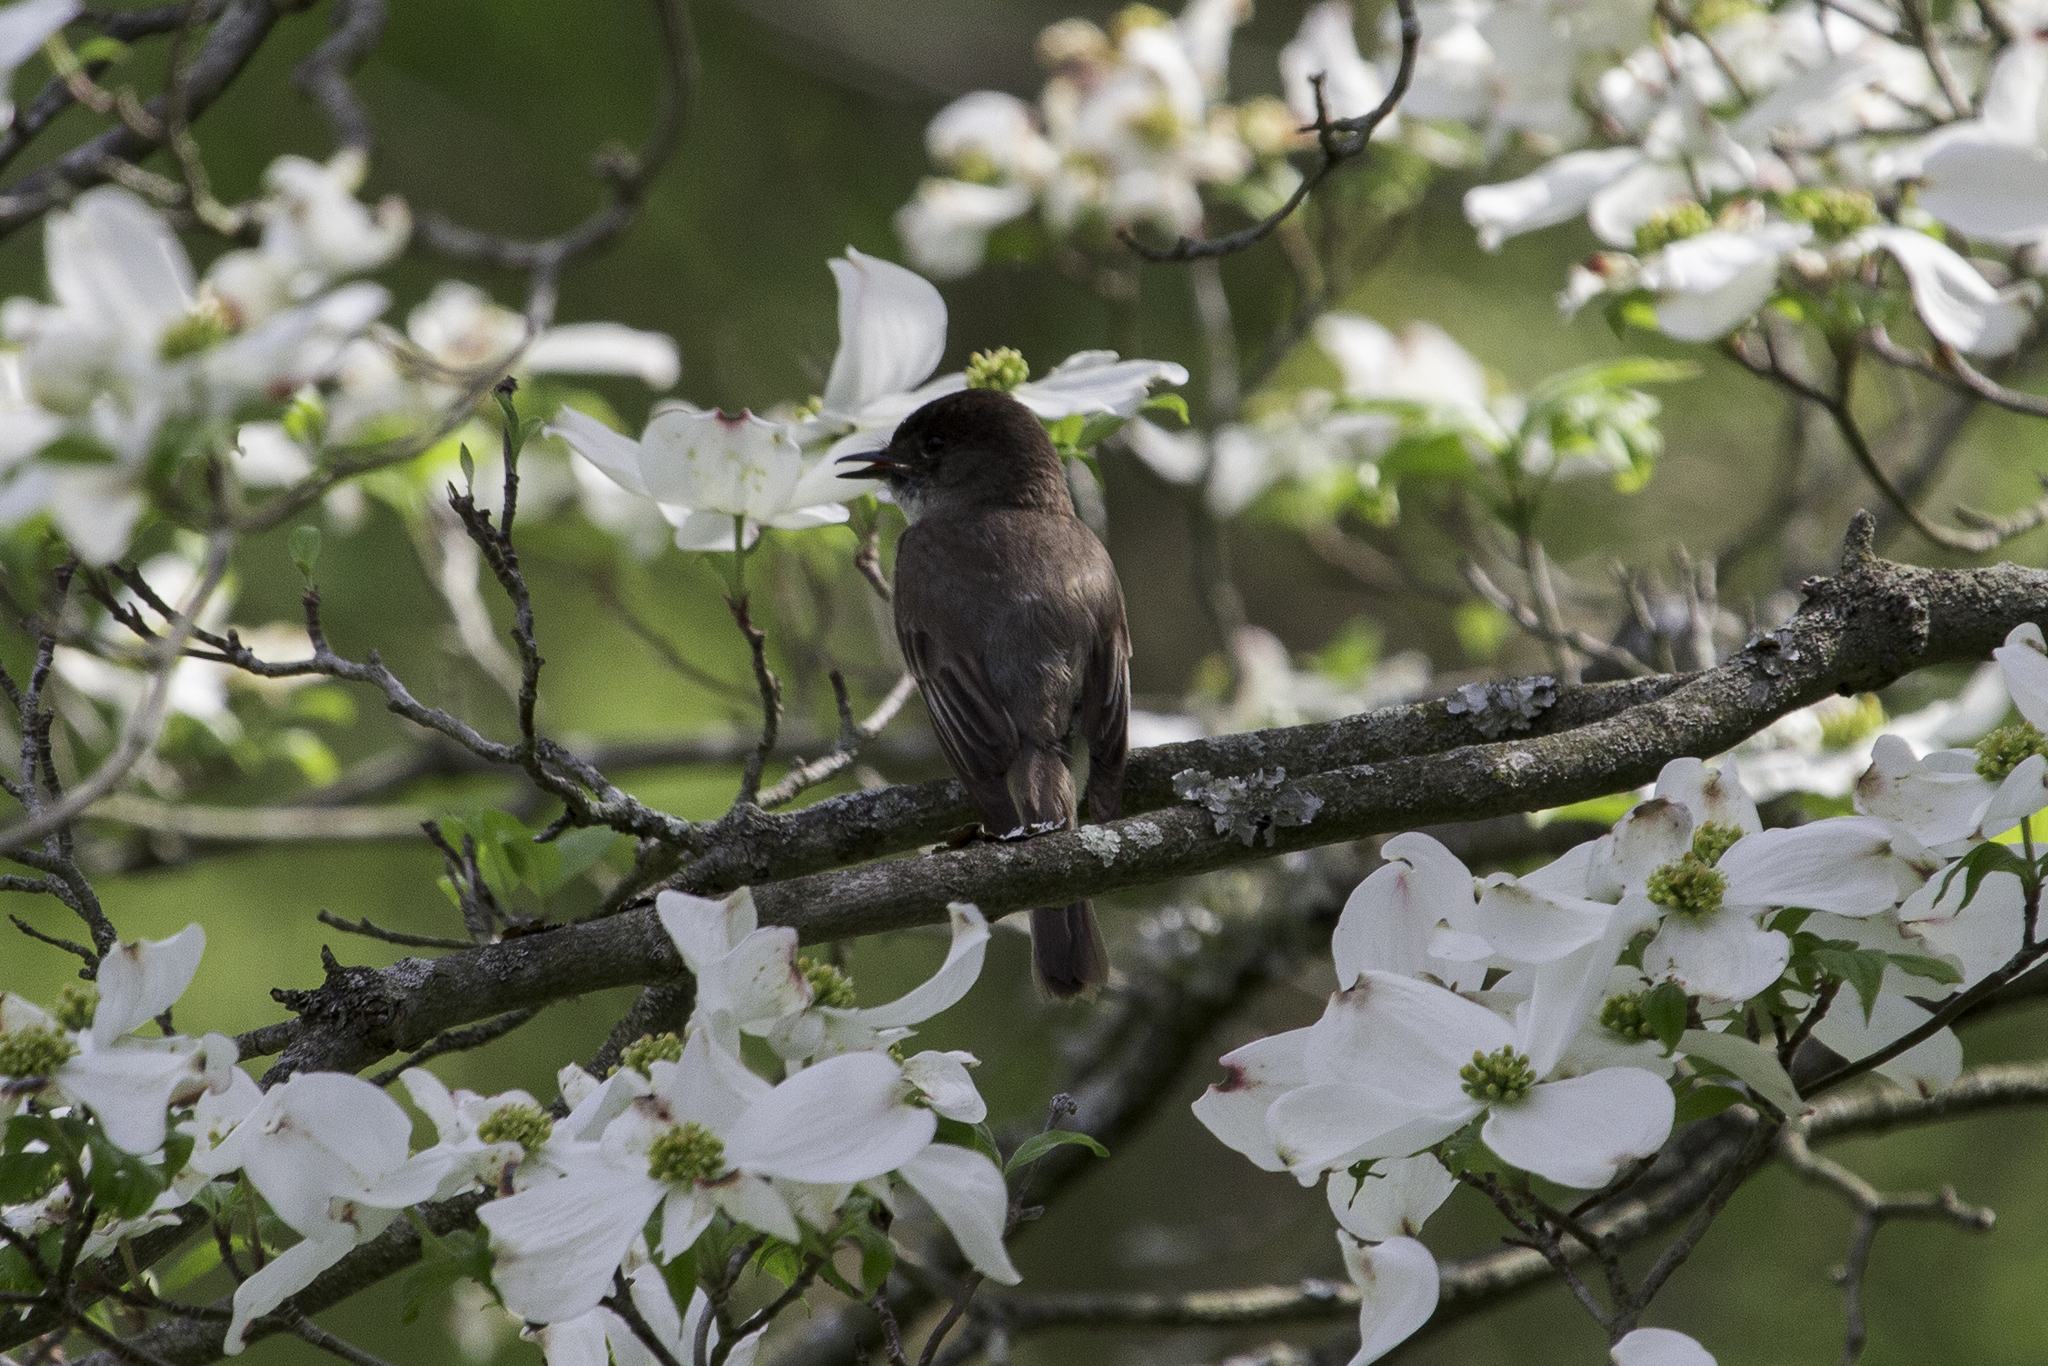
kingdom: Animalia
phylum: Chordata
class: Aves
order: Passeriformes
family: Tyrannidae
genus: Sayornis
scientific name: Sayornis phoebe
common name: Eastern phoebe
